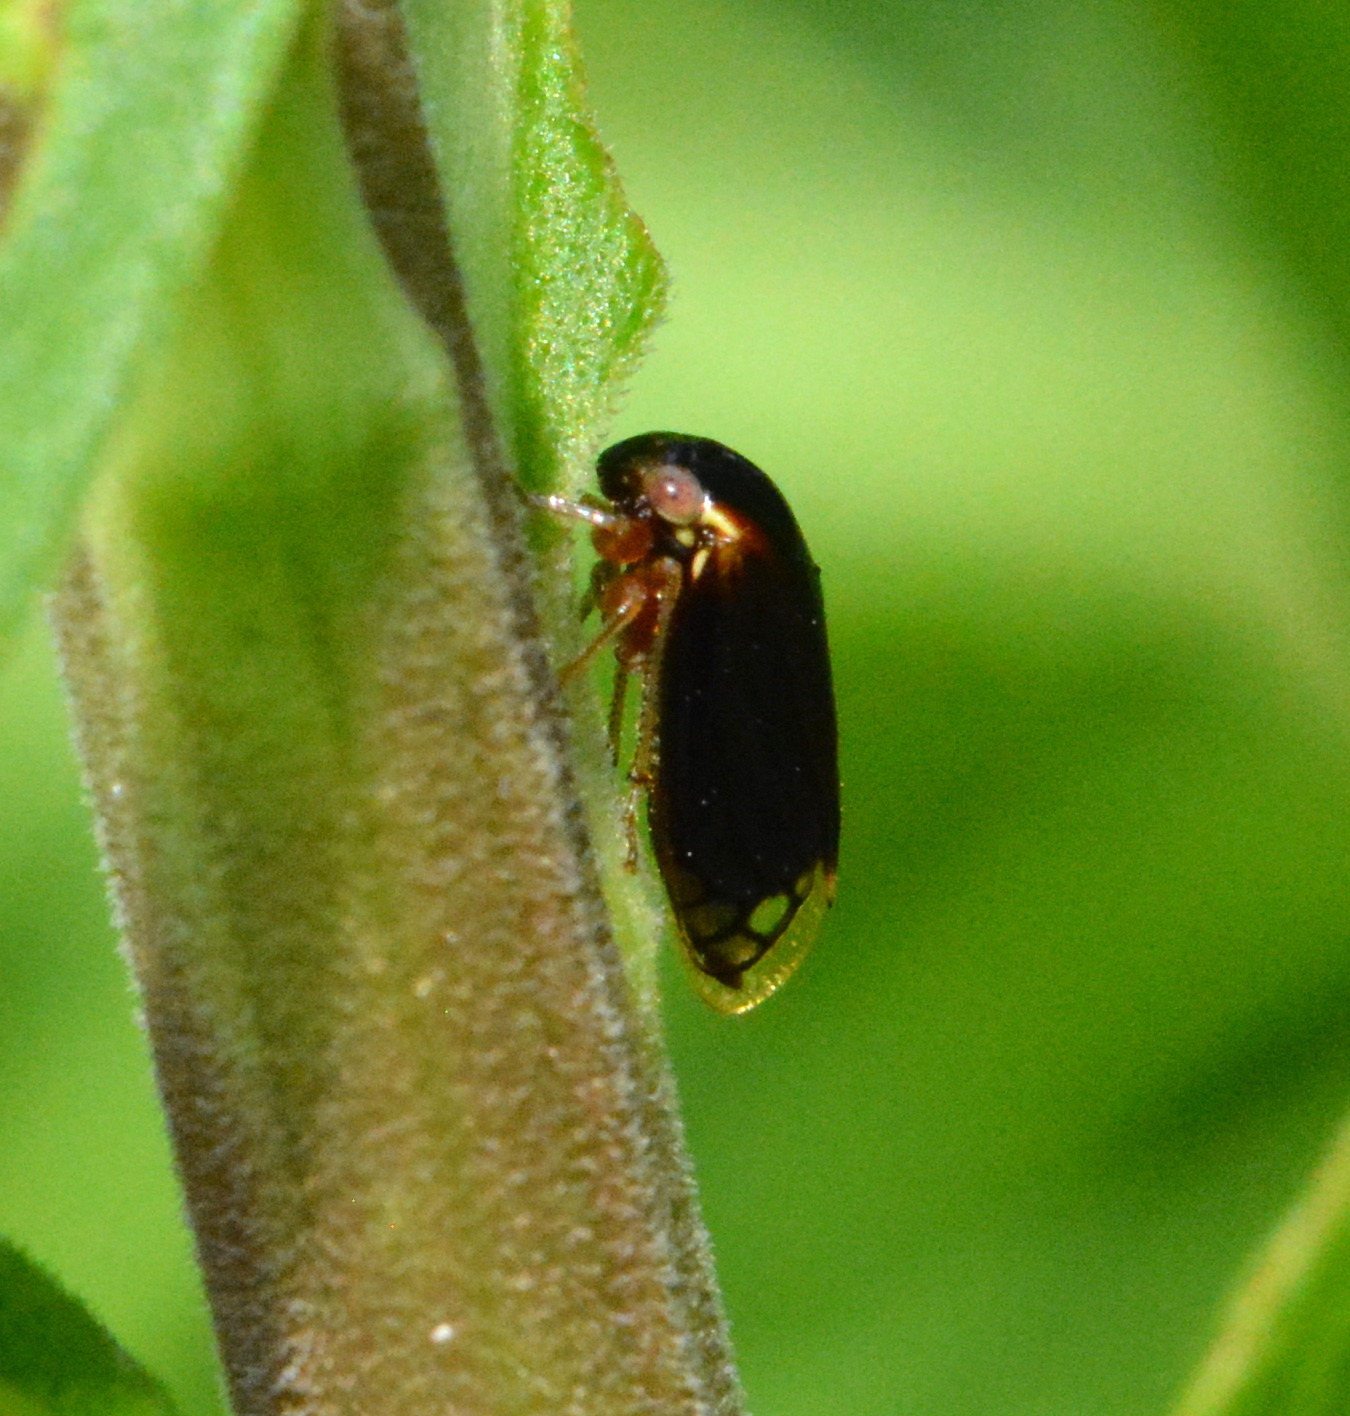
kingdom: Animalia
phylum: Arthropoda
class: Insecta
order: Hemiptera
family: Membracidae
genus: Acutalis
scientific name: Acutalis tartarea
